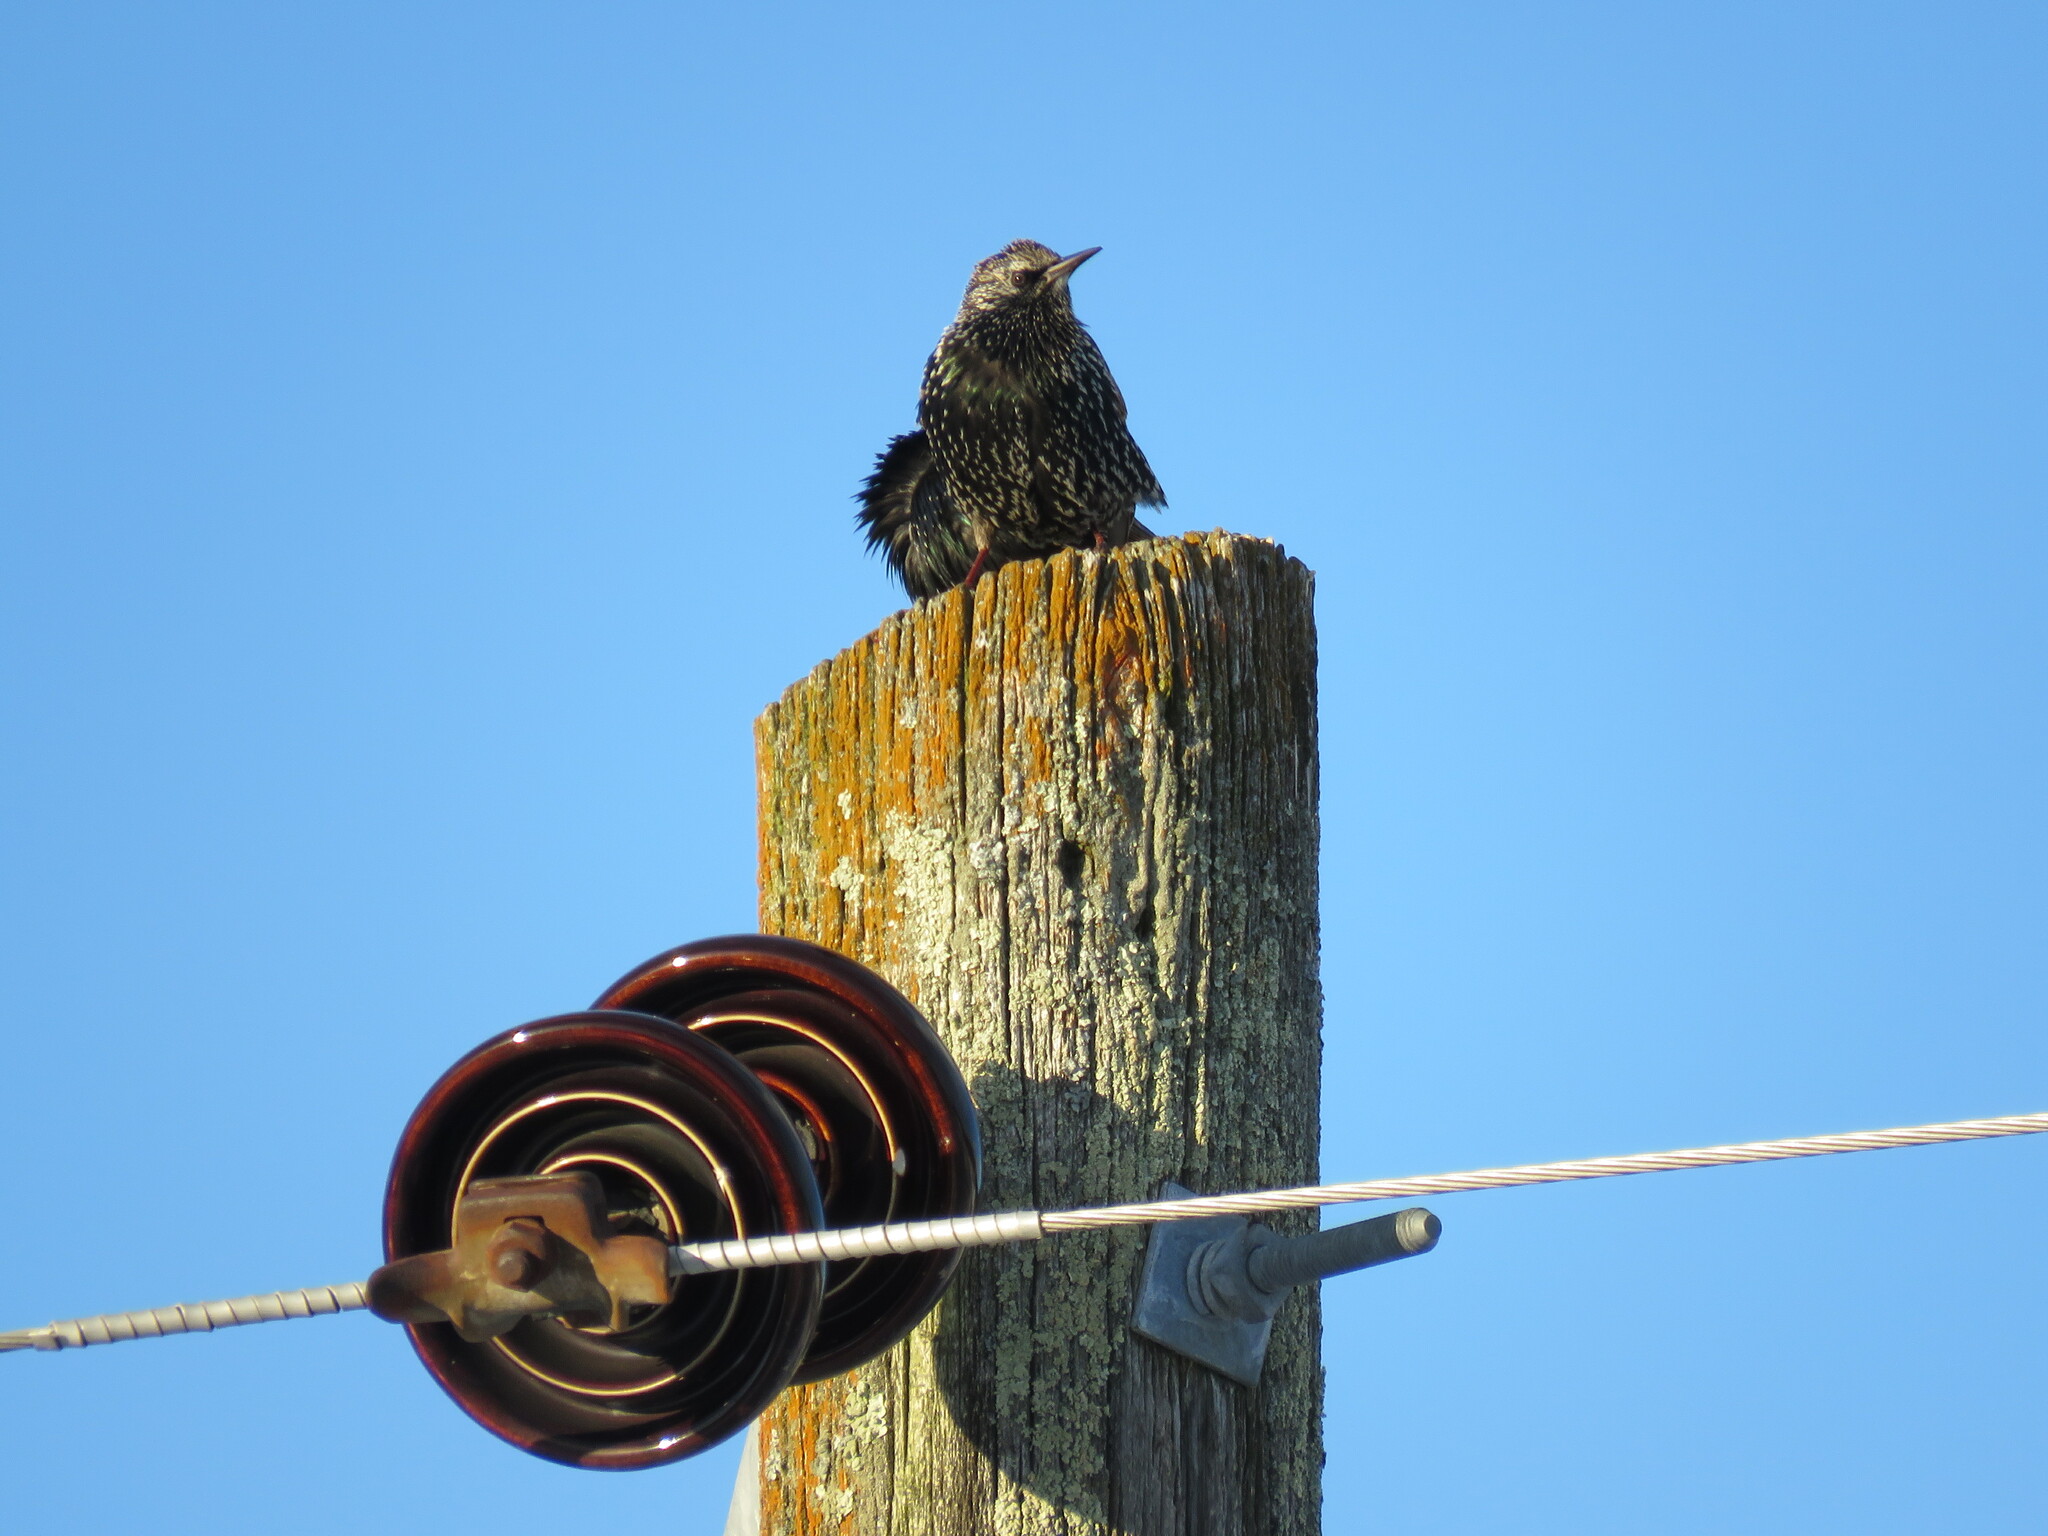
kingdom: Animalia
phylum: Chordata
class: Aves
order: Passeriformes
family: Sturnidae
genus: Sturnus
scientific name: Sturnus vulgaris
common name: Common starling
